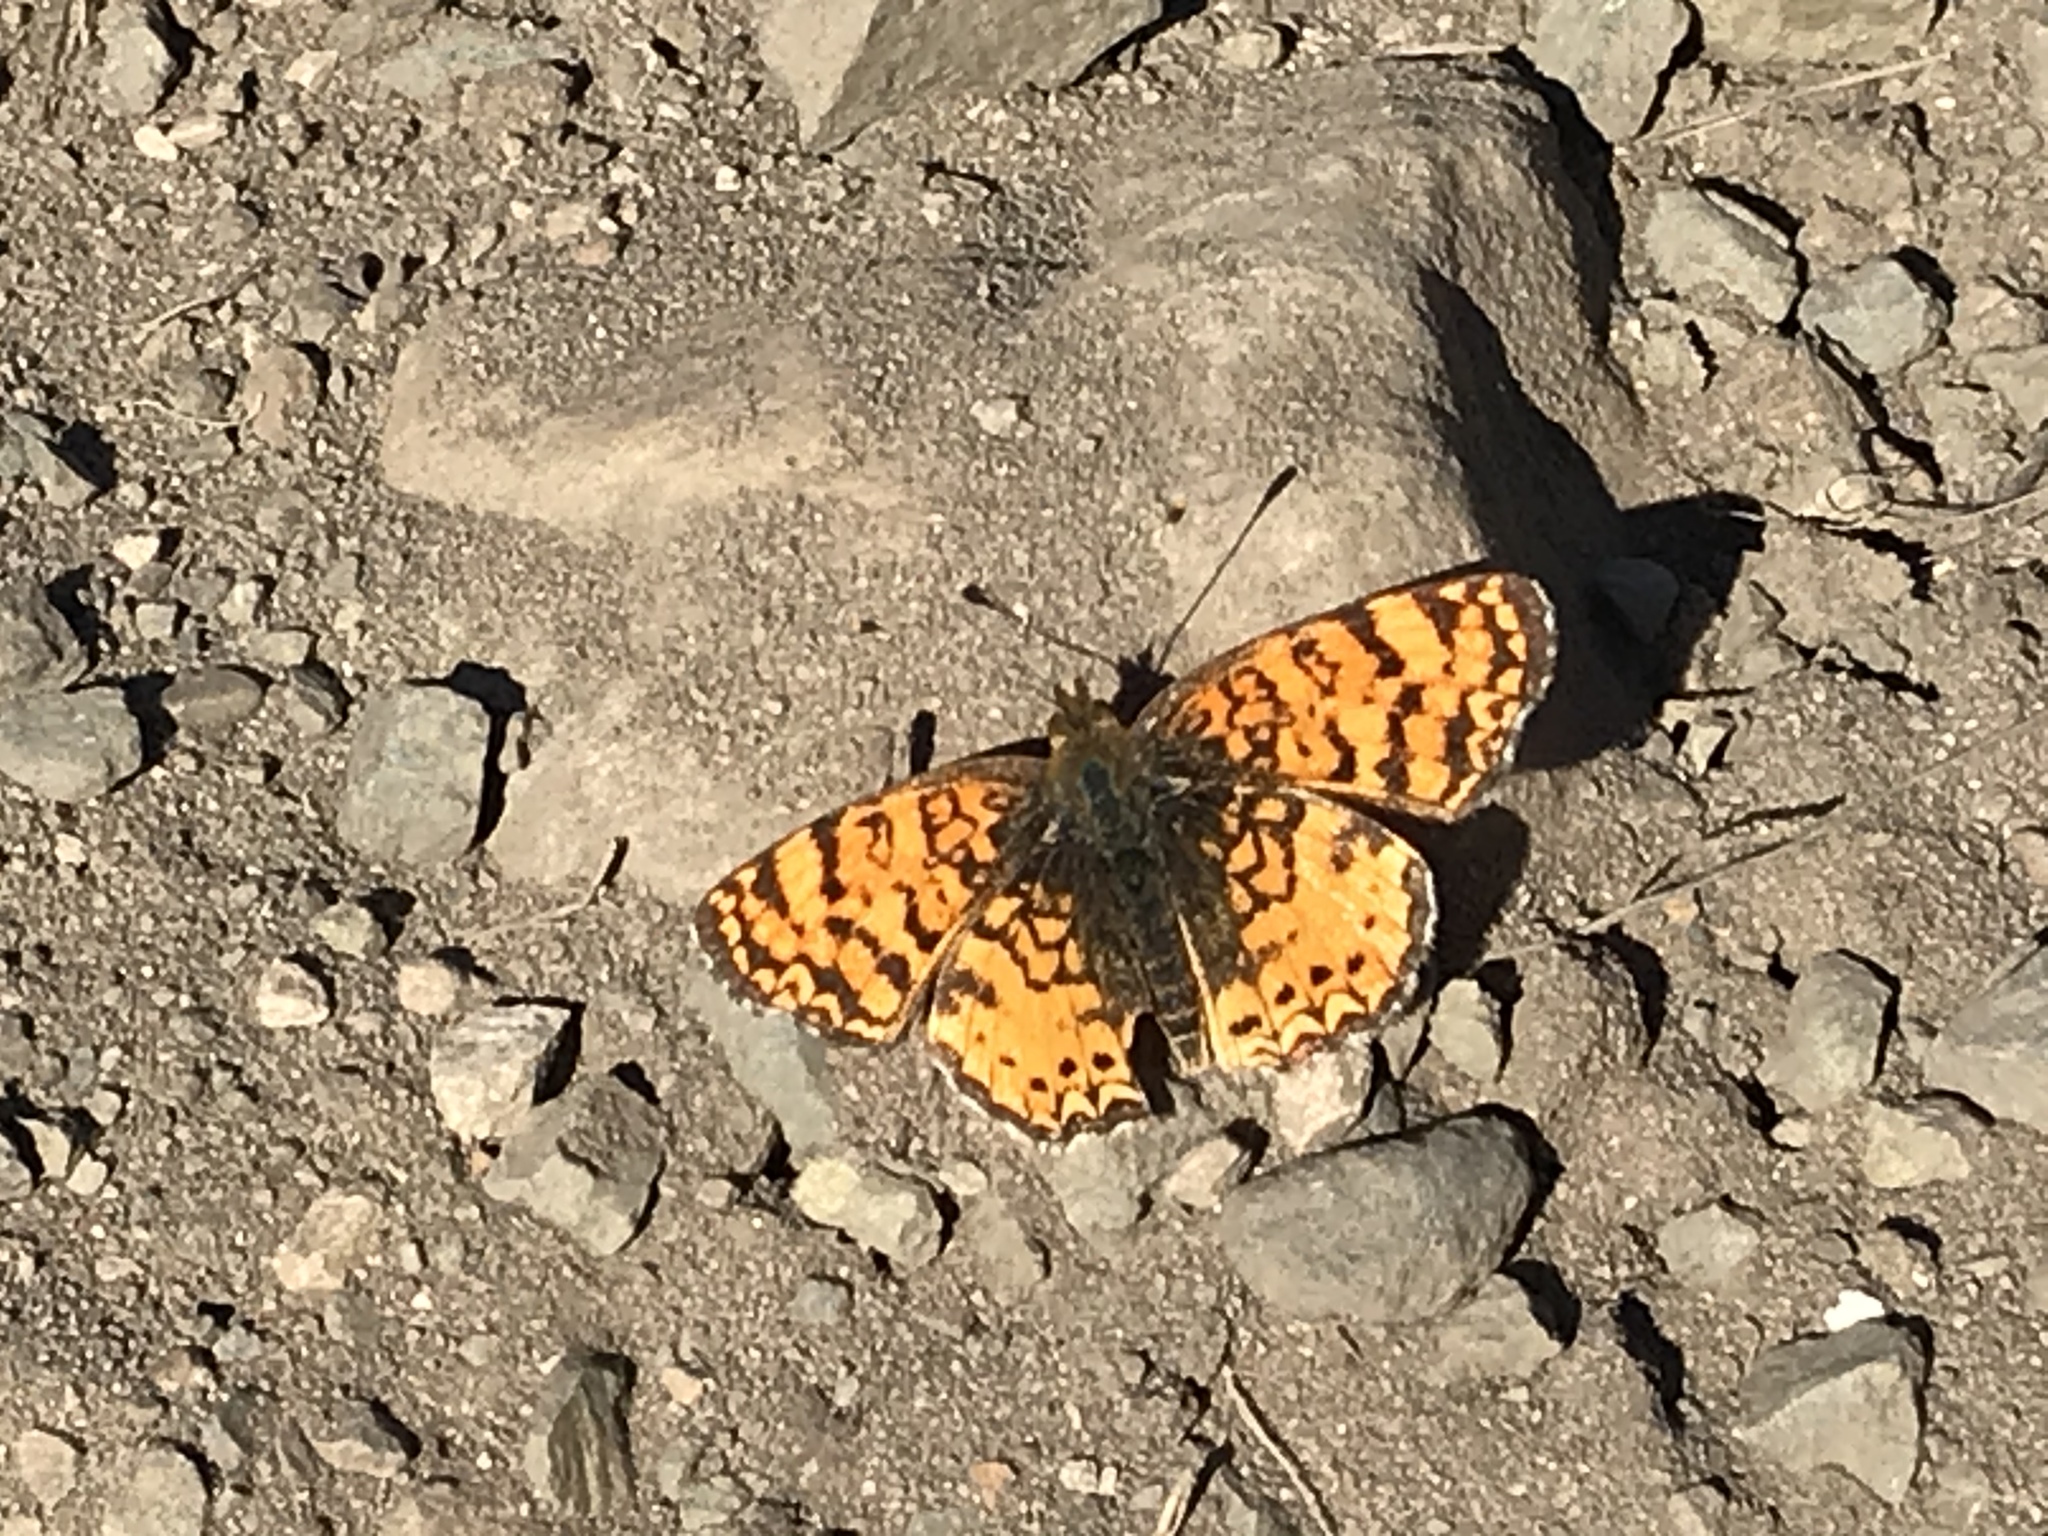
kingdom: Animalia
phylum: Arthropoda
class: Insecta
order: Lepidoptera
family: Nymphalidae
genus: Eresia
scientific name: Eresia aveyrona
